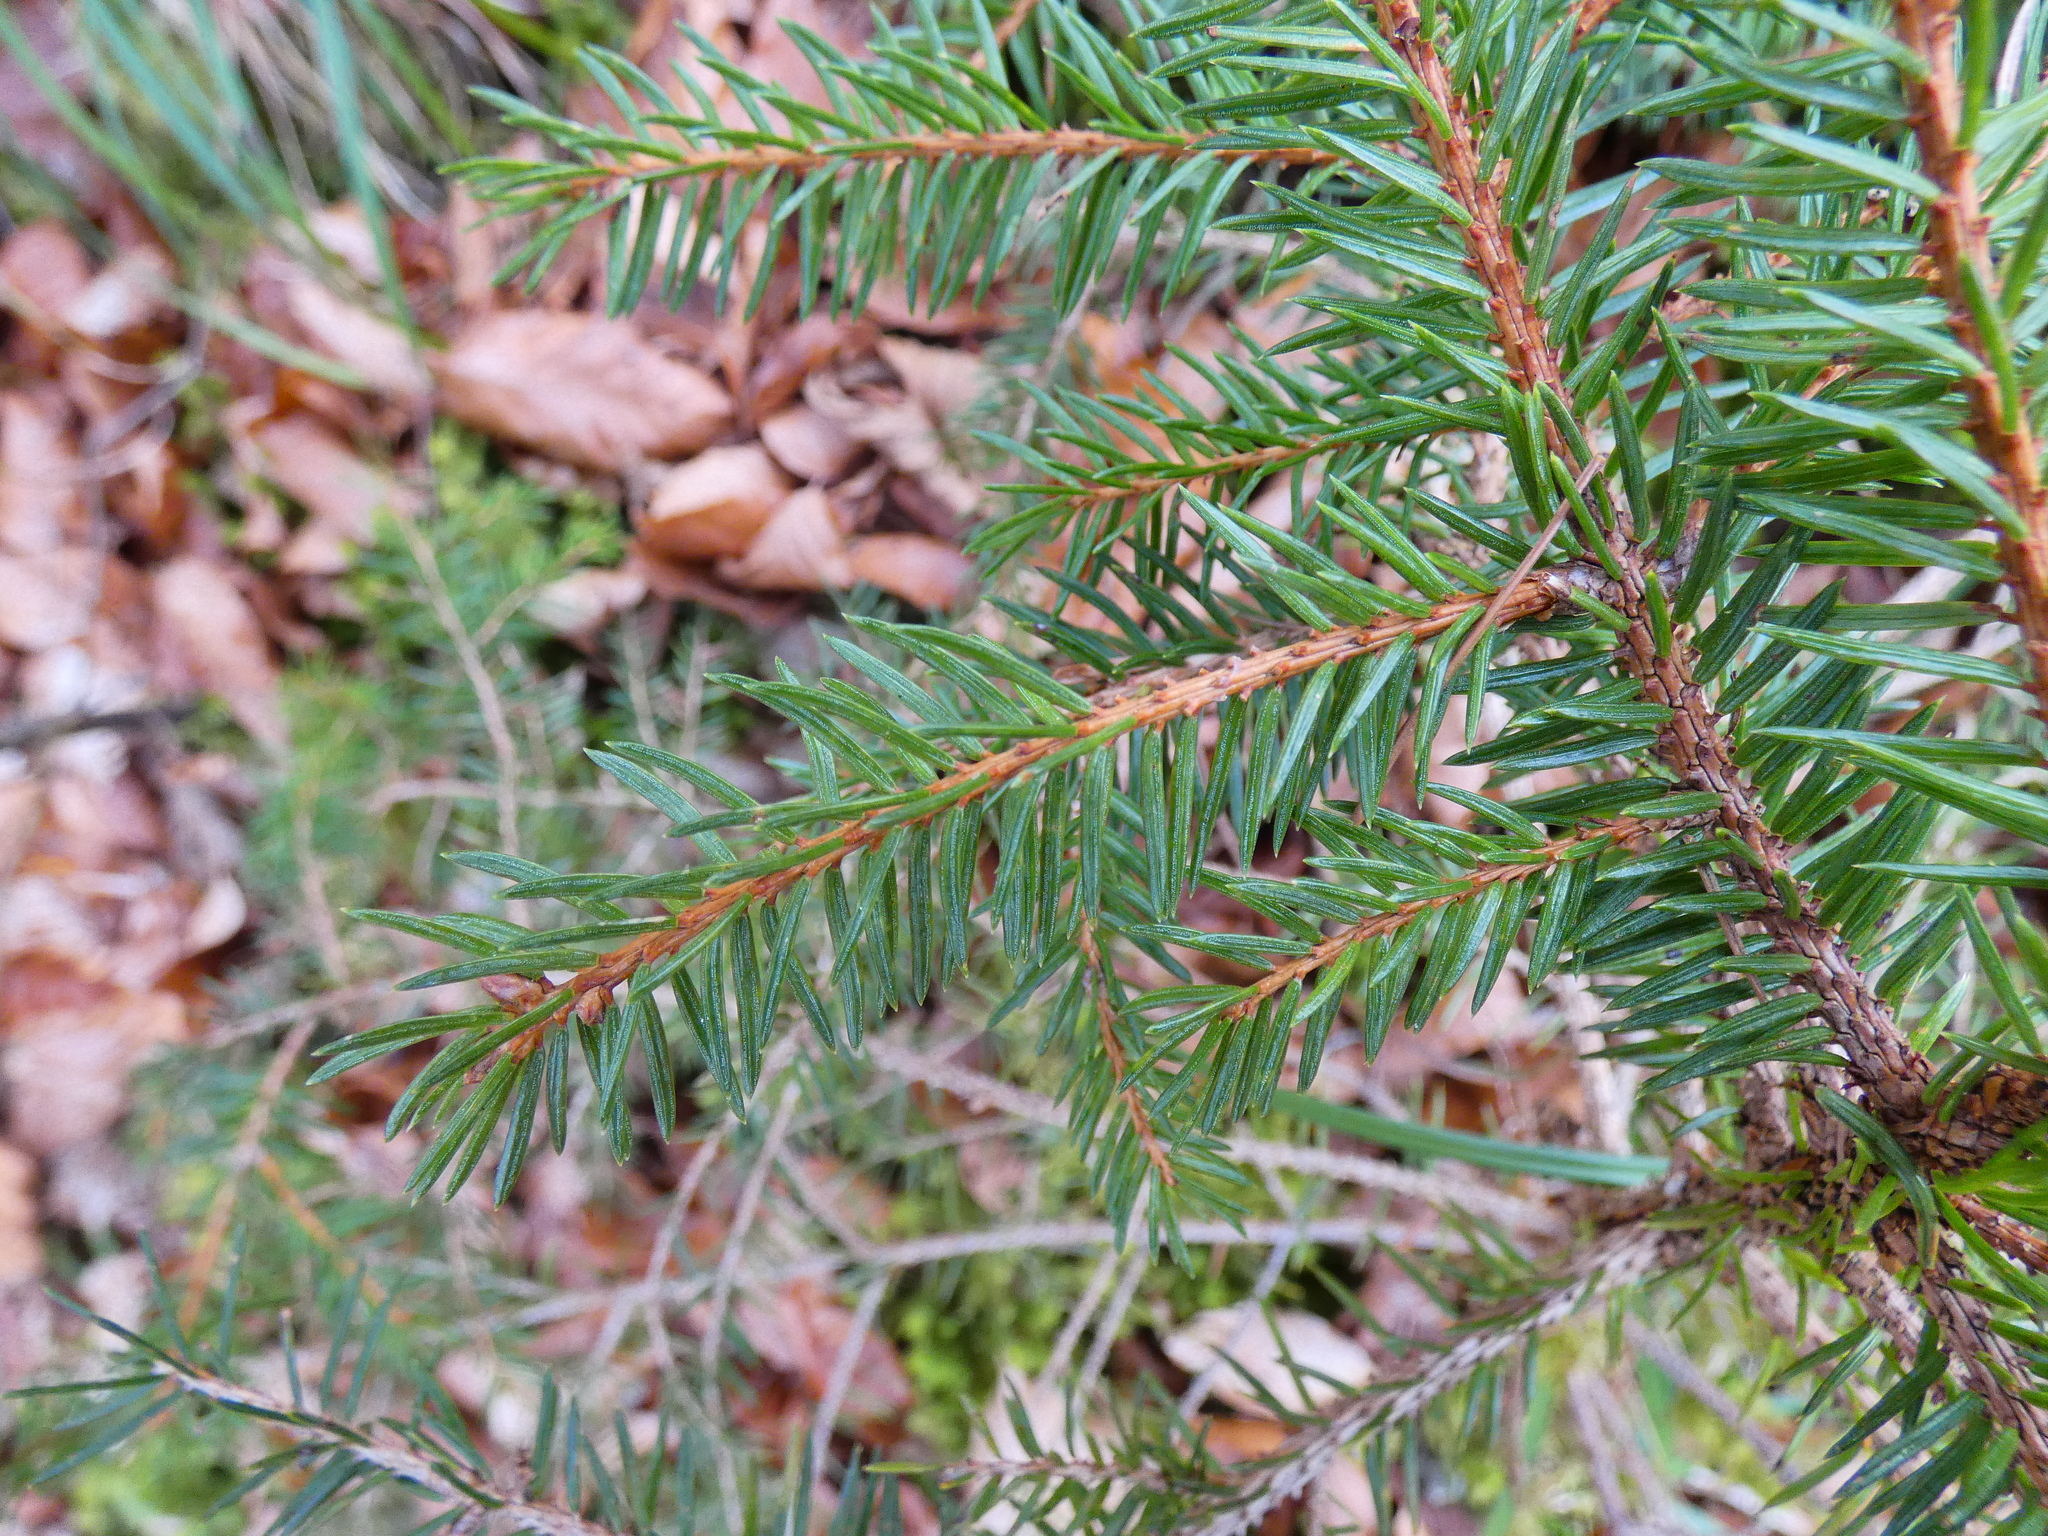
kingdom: Plantae
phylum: Tracheophyta
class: Pinopsida
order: Pinales
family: Pinaceae
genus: Picea
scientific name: Picea abies
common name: Norway spruce
